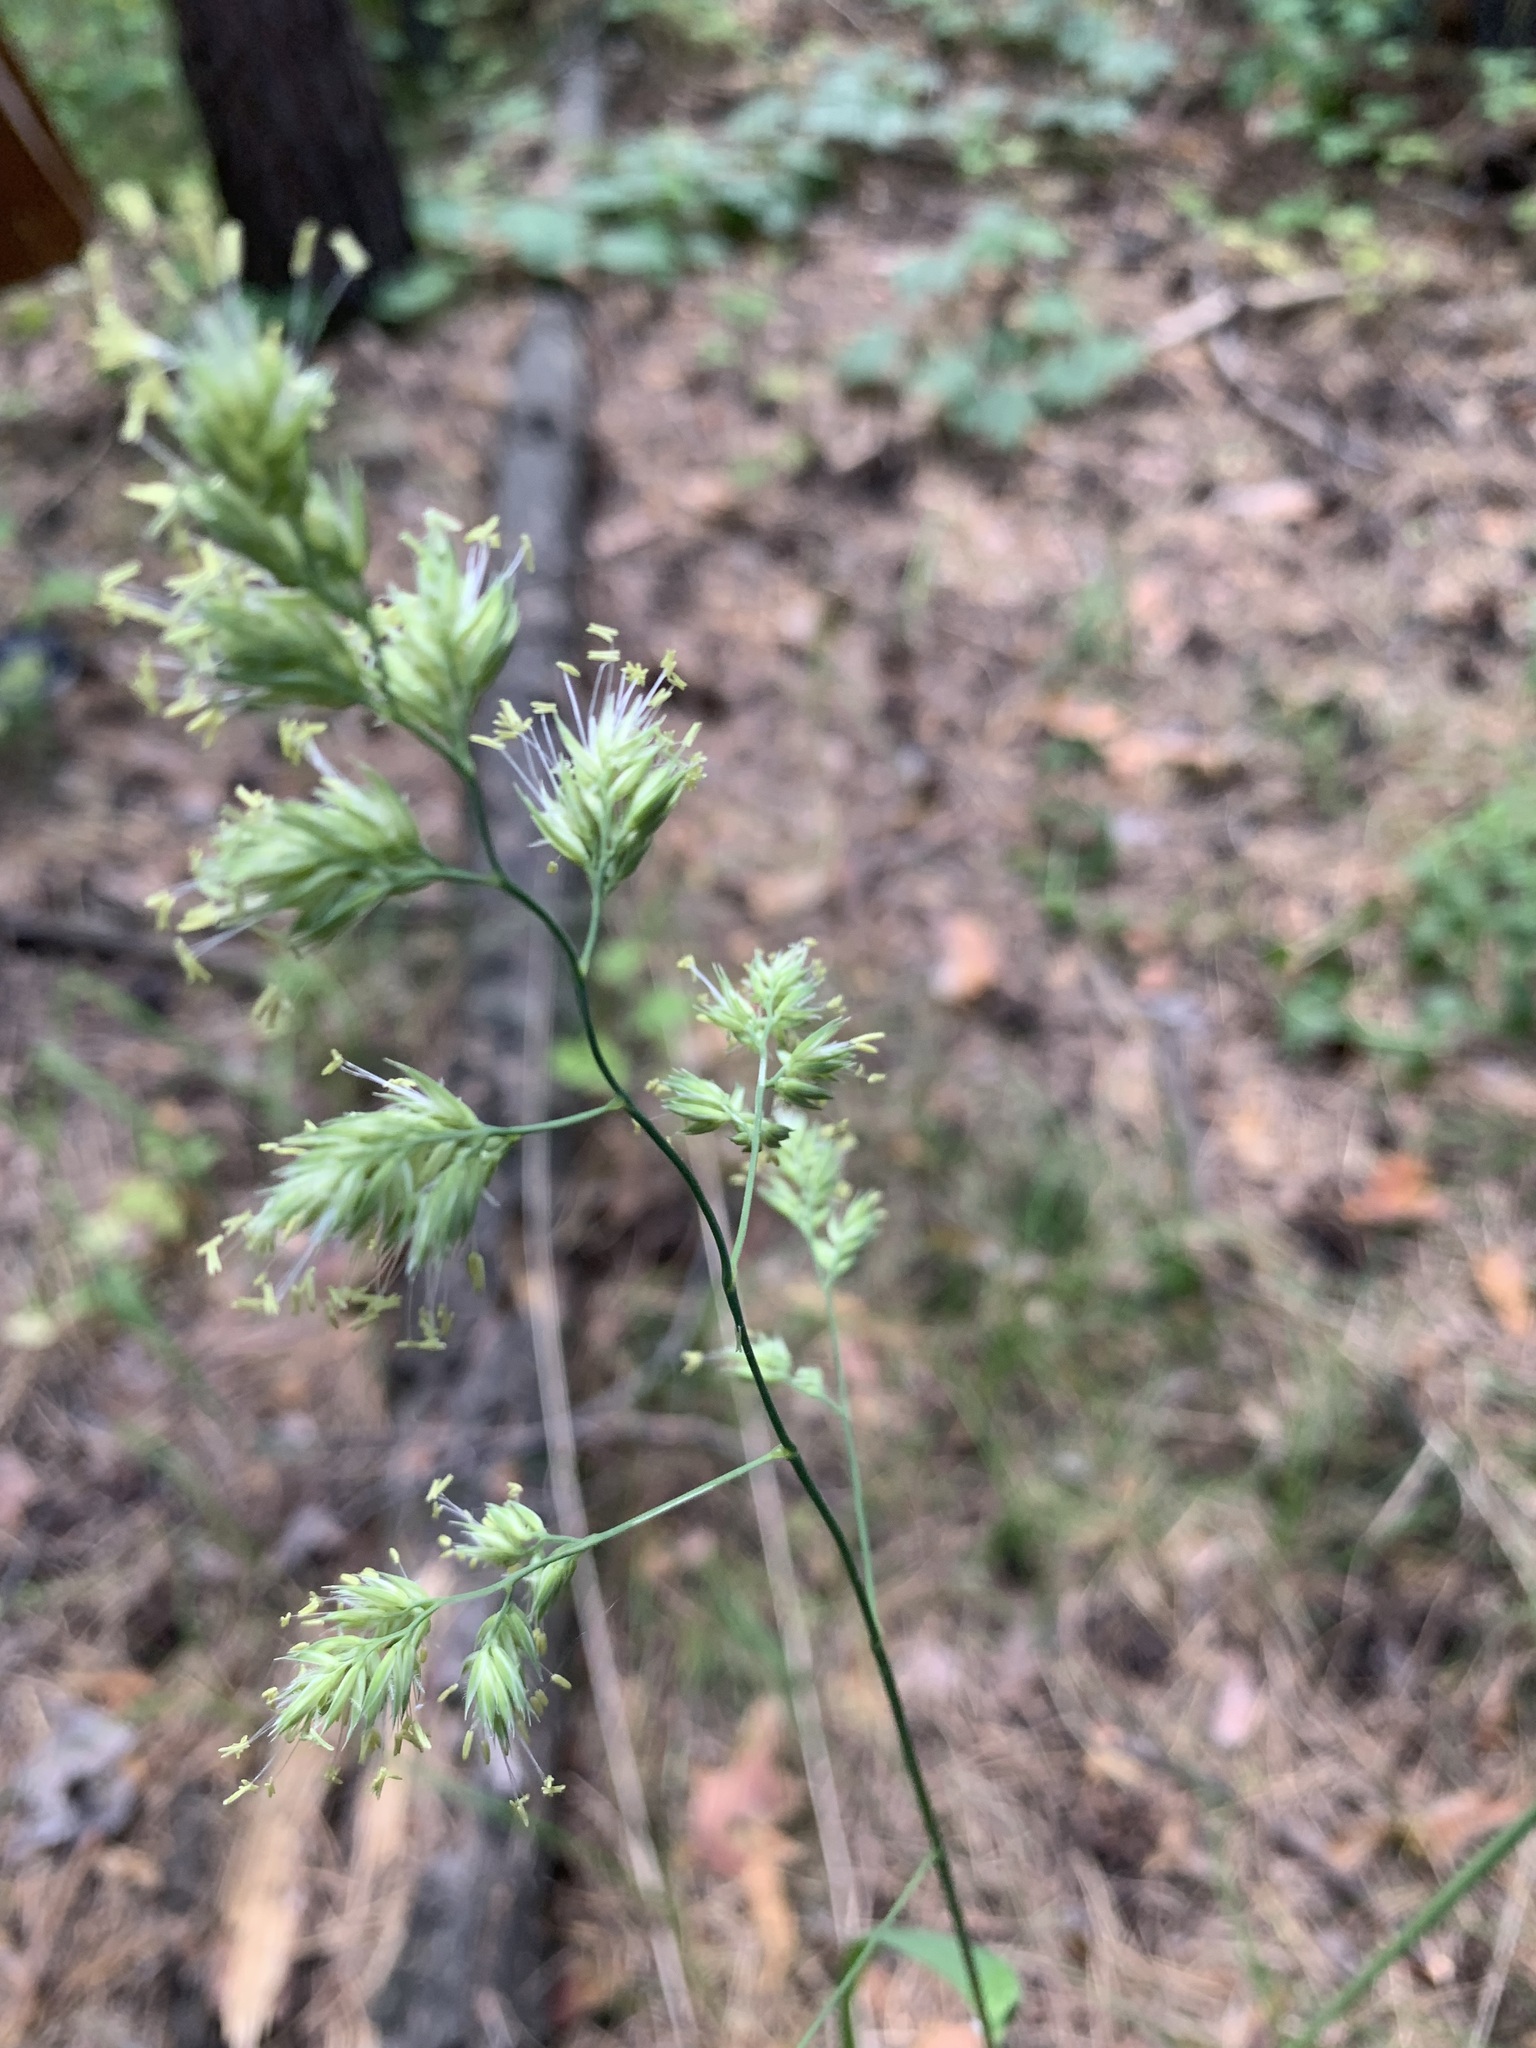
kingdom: Plantae
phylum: Tracheophyta
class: Liliopsida
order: Poales
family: Poaceae
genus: Dactylis
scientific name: Dactylis glomerata
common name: Orchardgrass
